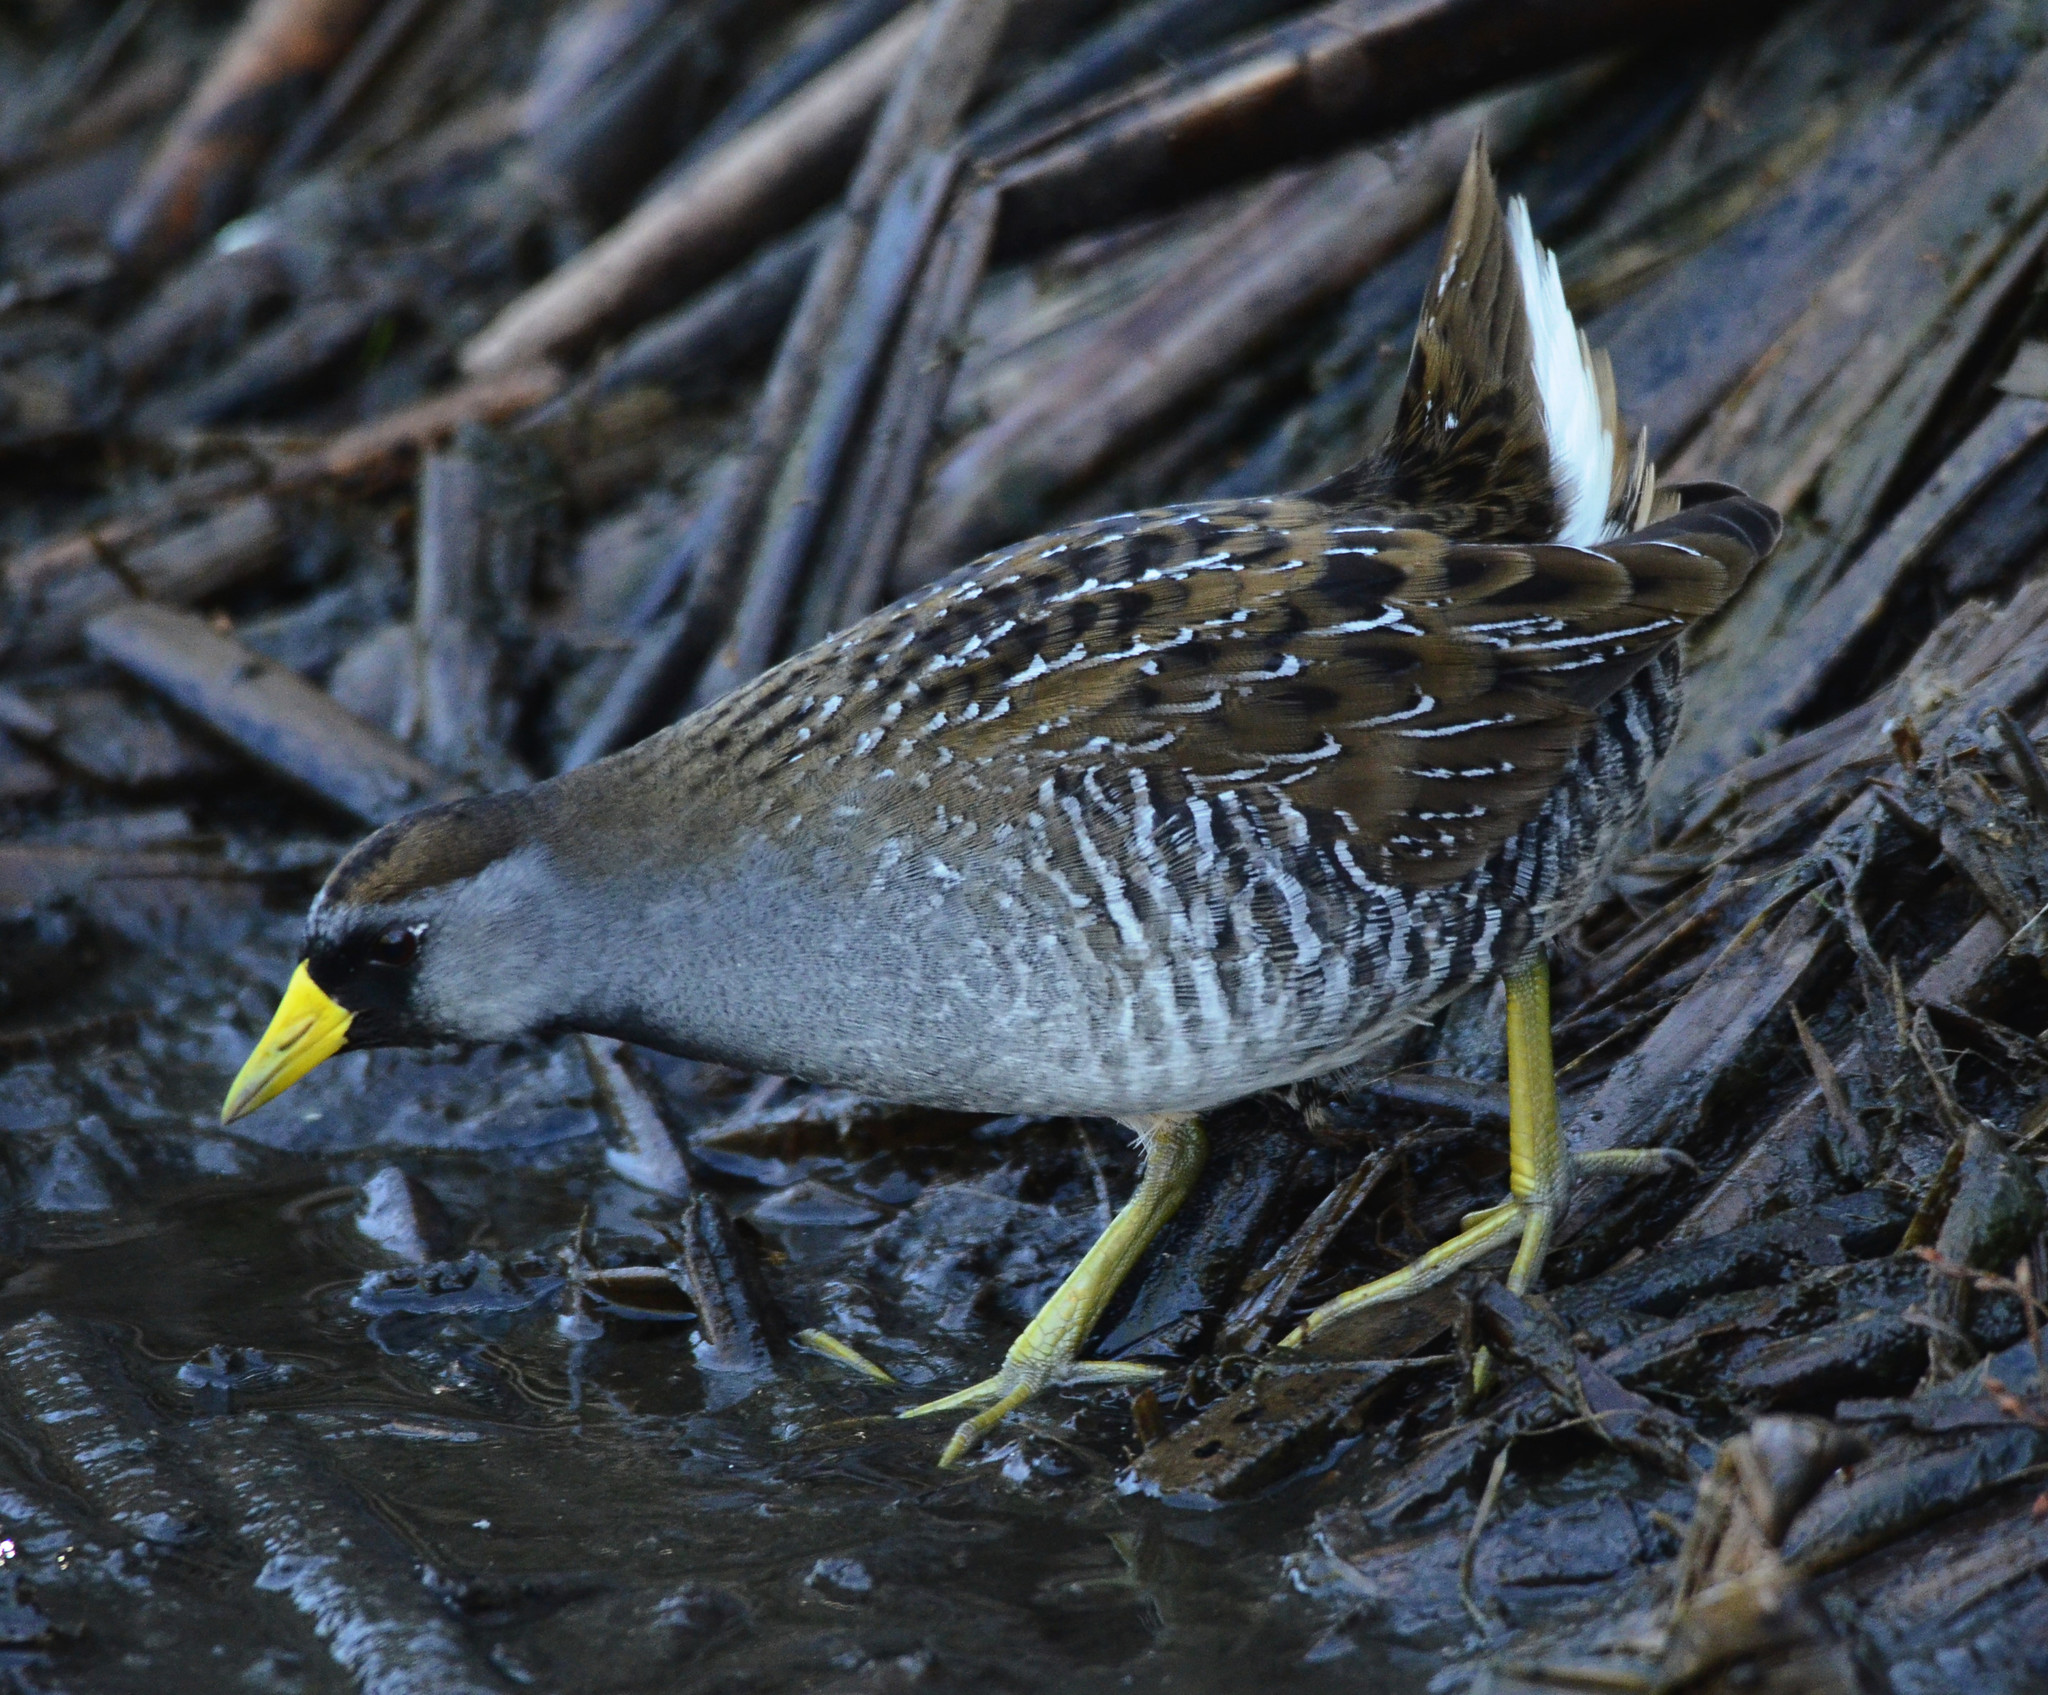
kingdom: Animalia
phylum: Chordata
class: Aves
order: Gruiformes
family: Rallidae
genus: Porzana
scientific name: Porzana carolina
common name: Sora
